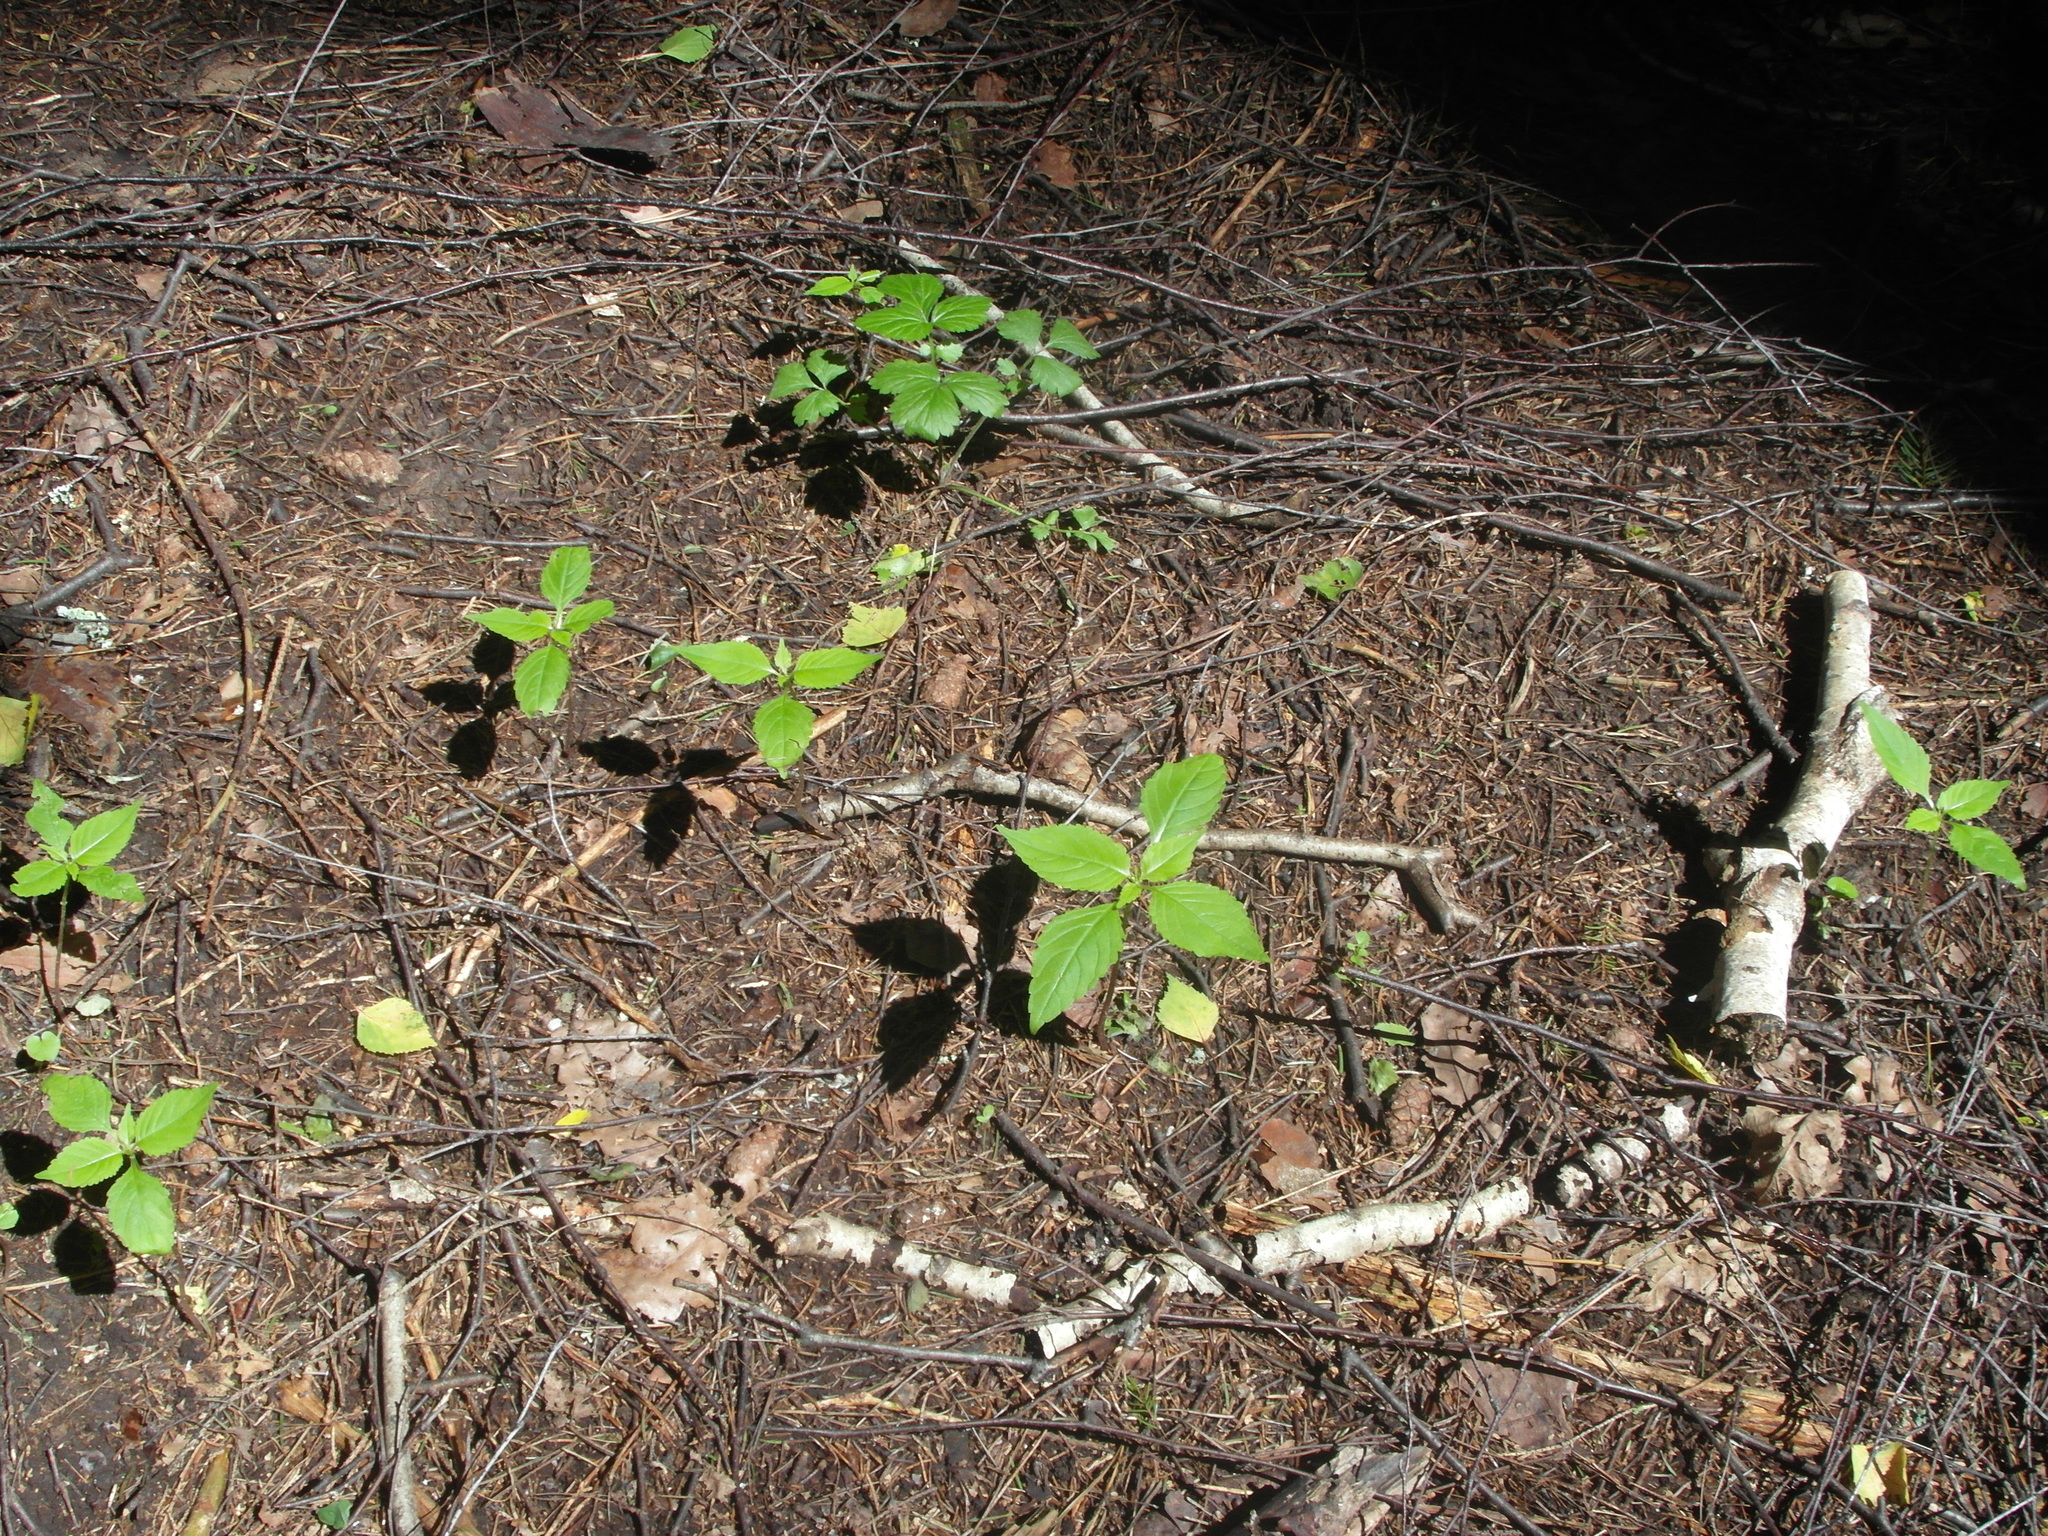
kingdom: Plantae
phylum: Tracheophyta
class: Magnoliopsida
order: Ericales
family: Balsaminaceae
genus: Impatiens
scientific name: Impatiens parviflora
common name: Small balsam
